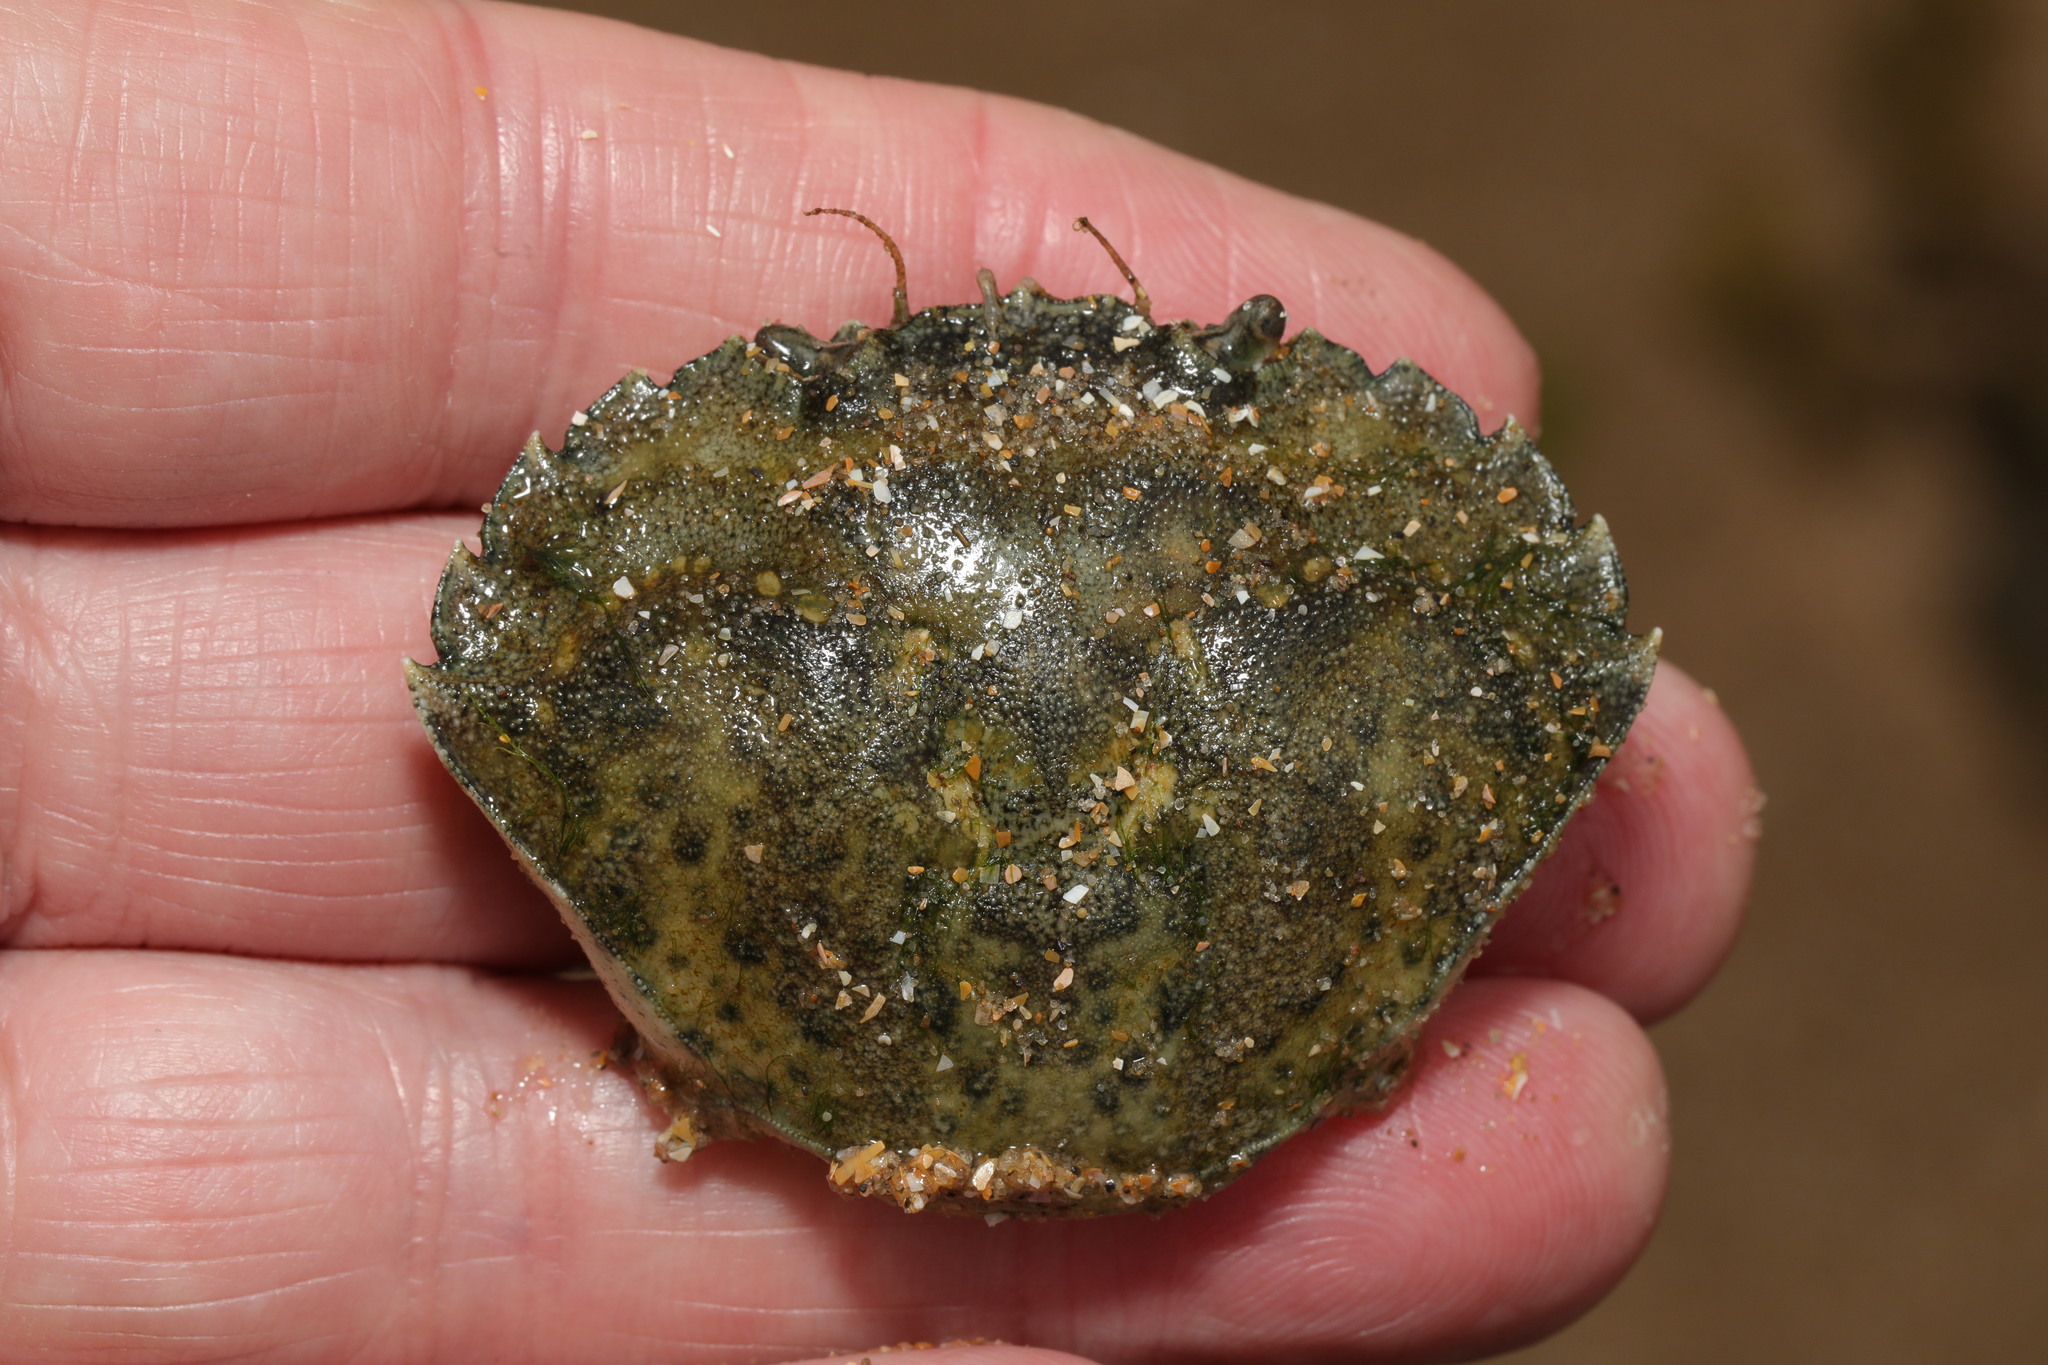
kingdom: Animalia
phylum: Arthropoda
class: Malacostraca
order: Decapoda
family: Carcinidae
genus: Carcinus
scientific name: Carcinus maenas
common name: European green crab
